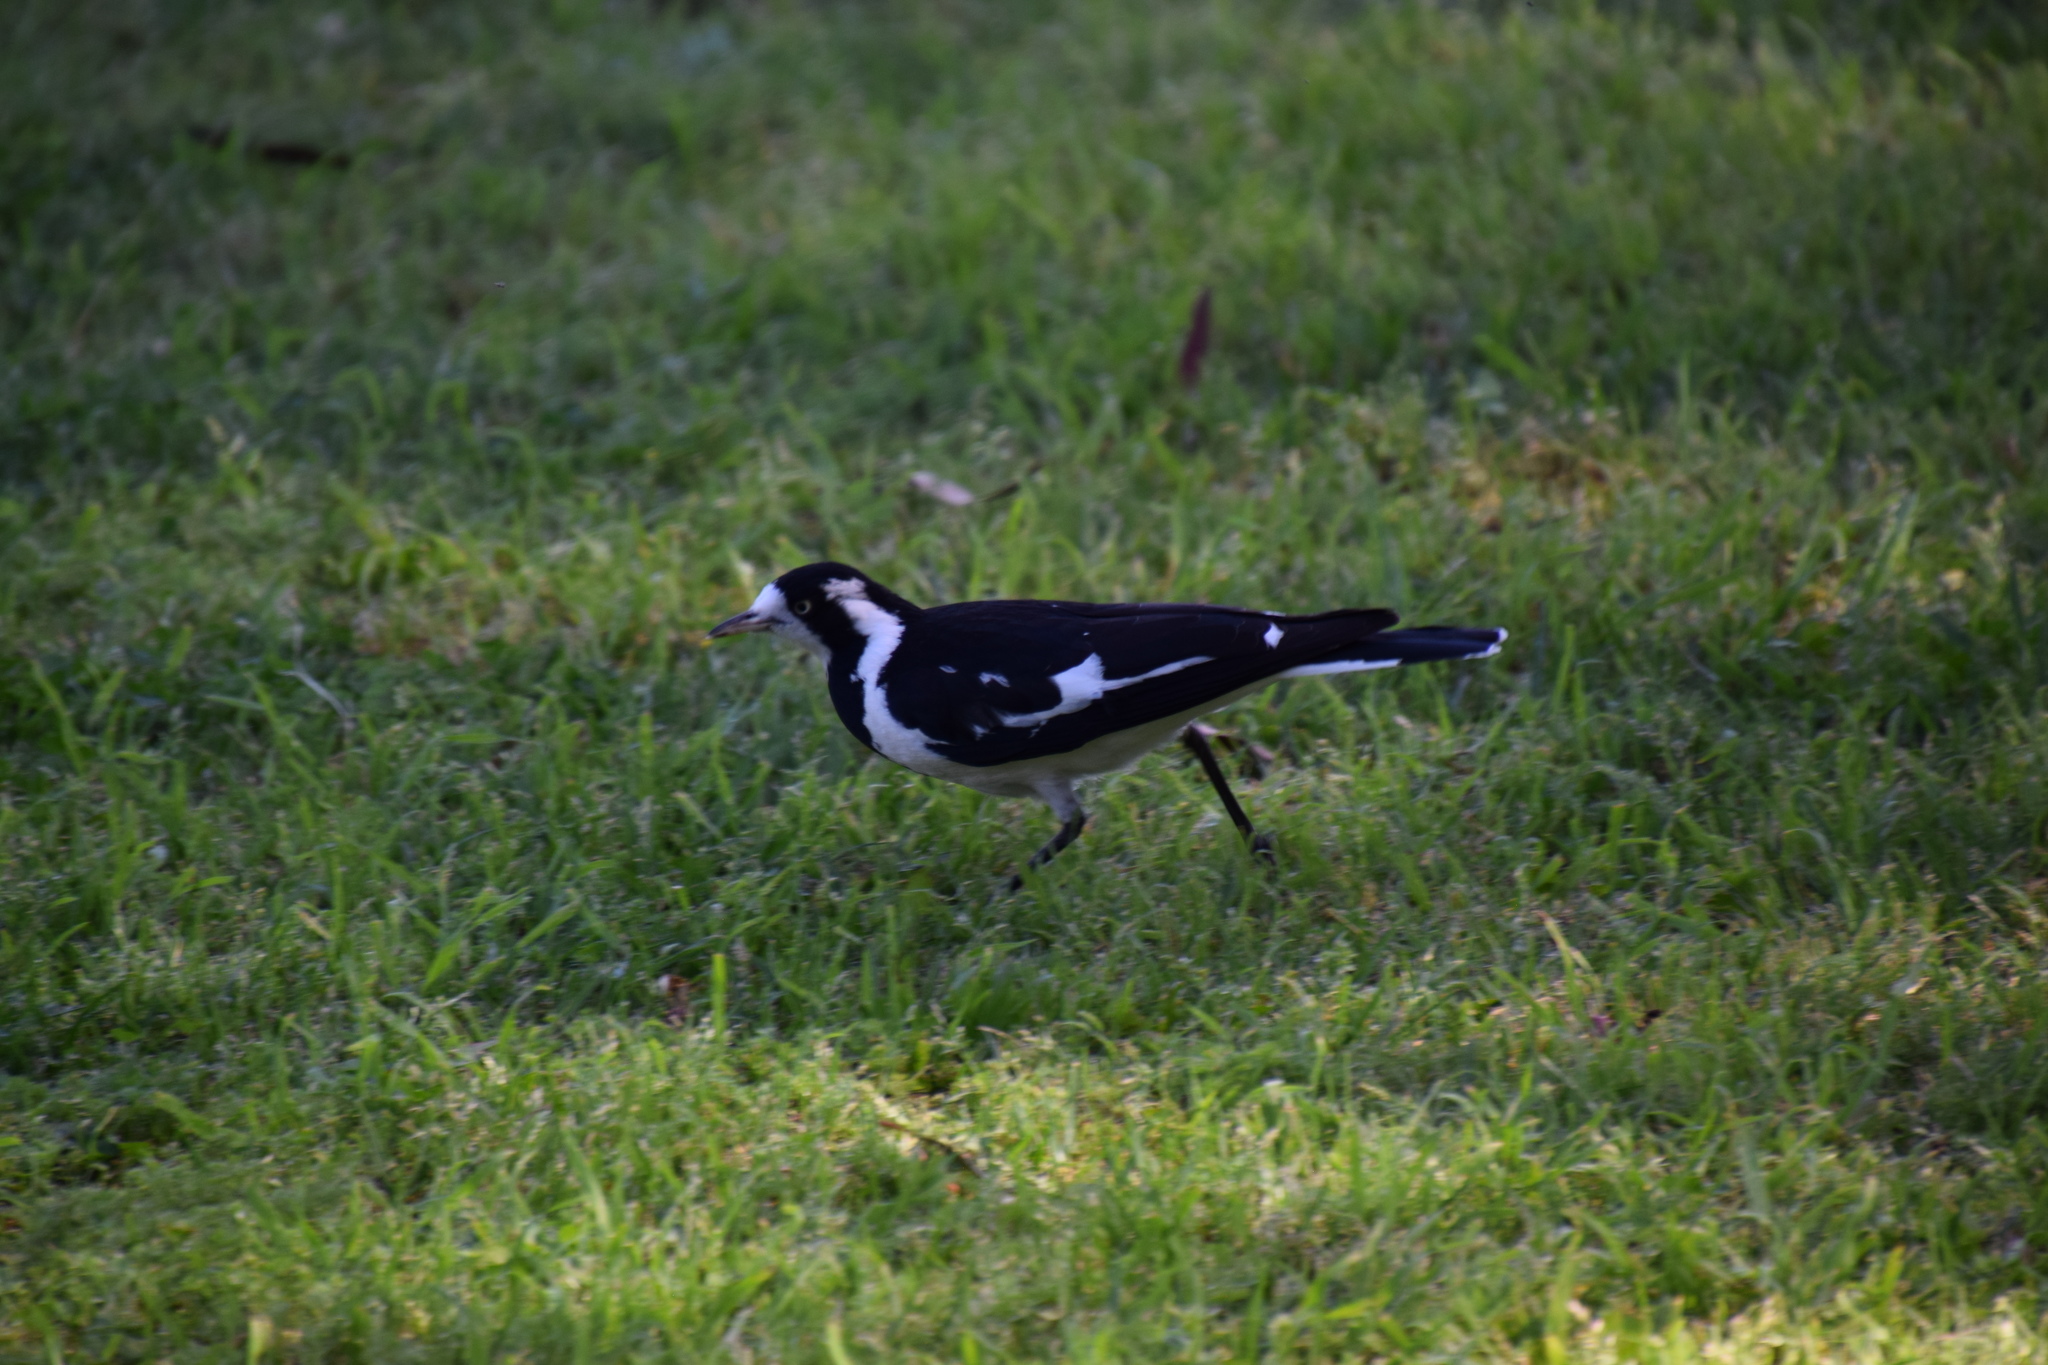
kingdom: Animalia
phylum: Chordata
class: Aves
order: Passeriformes
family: Monarchidae
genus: Grallina
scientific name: Grallina cyanoleuca
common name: Magpie-lark
